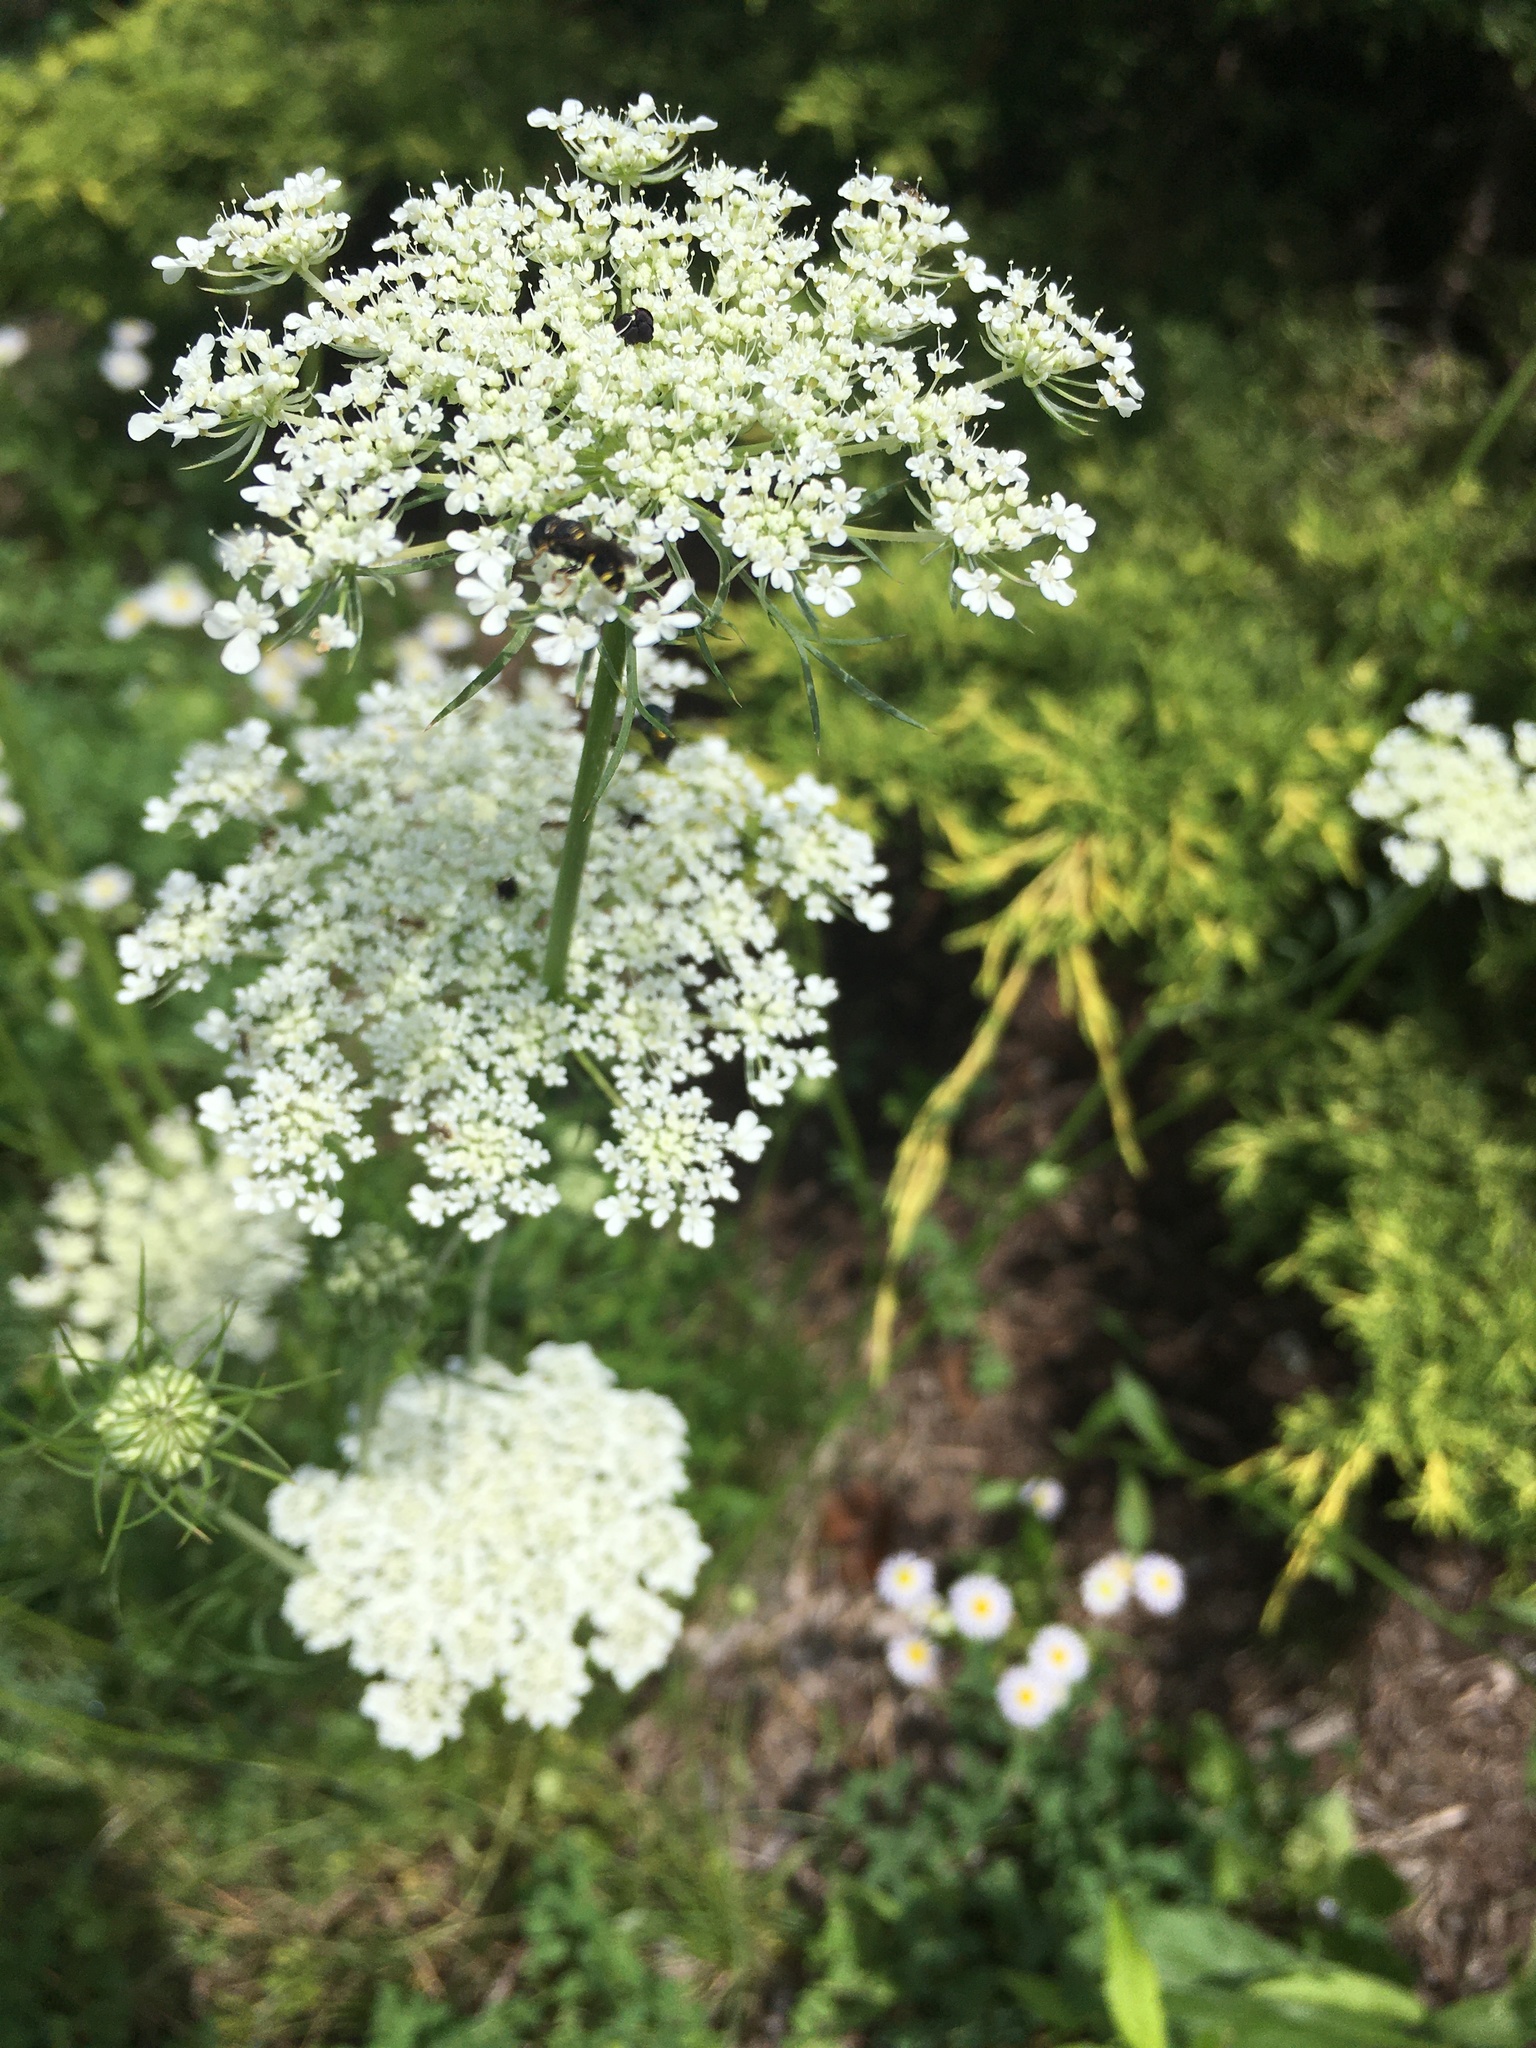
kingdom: Plantae
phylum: Tracheophyta
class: Magnoliopsida
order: Apiales
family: Apiaceae
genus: Daucus
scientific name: Daucus carota
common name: Wild carrot
